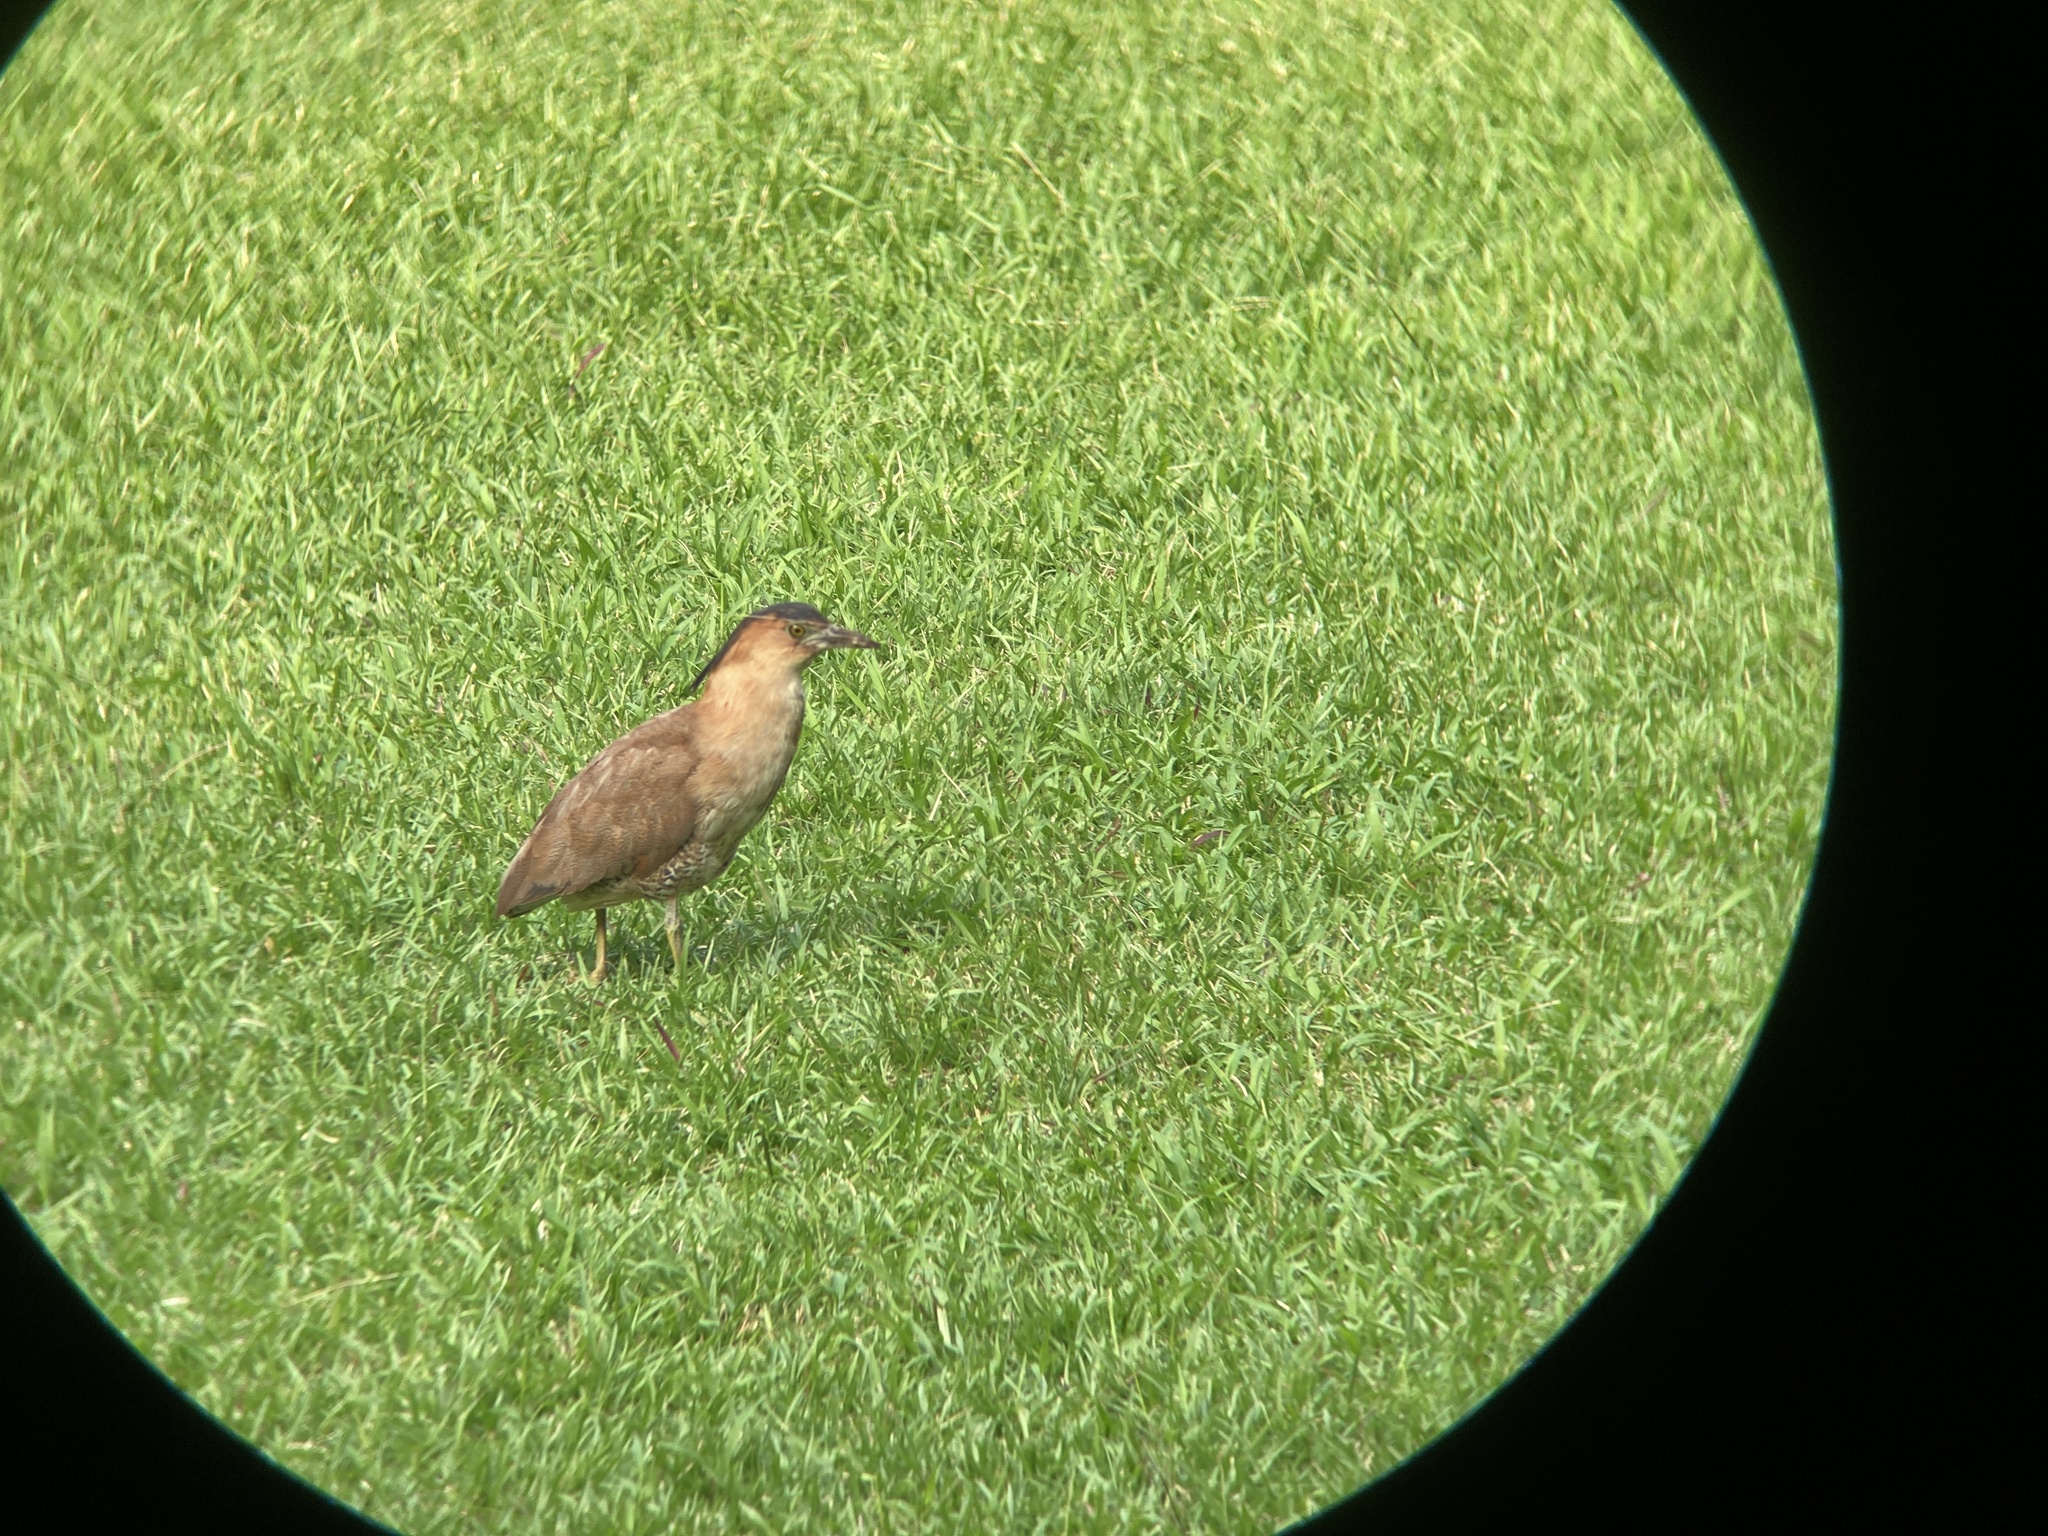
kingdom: Animalia
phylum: Chordata
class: Aves
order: Pelecaniformes
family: Ardeidae
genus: Gorsachius
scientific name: Gorsachius melanolophus
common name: Malayan night heron
